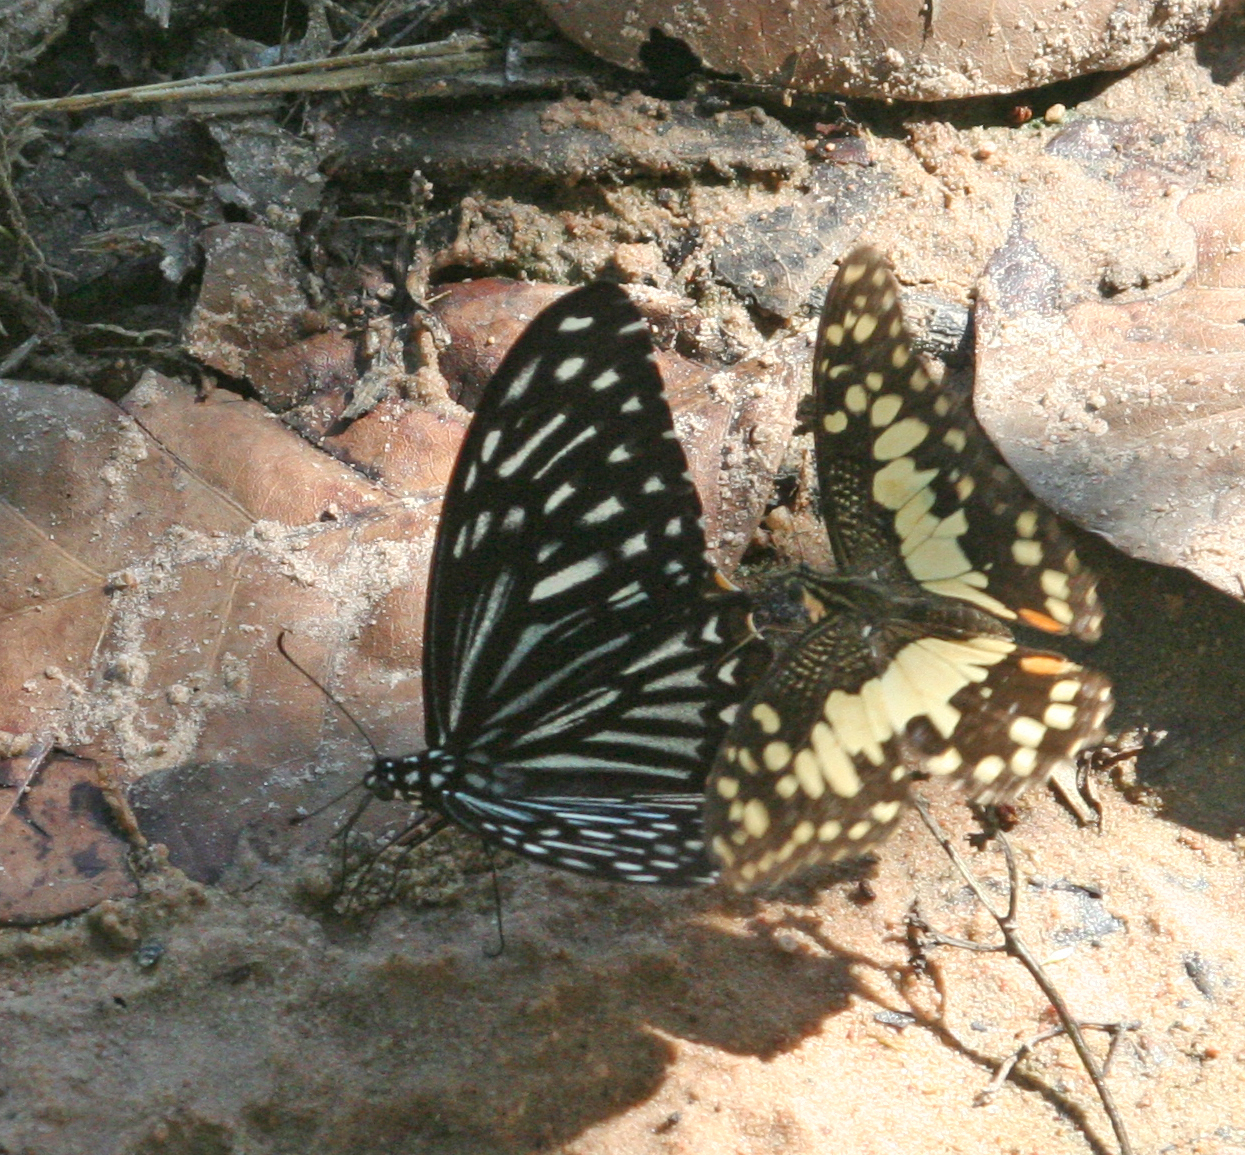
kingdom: Animalia
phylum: Arthropoda
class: Insecta
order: Lepidoptera
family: Papilionidae
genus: Papilio
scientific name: Papilio demoleus
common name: Lime butterfly
